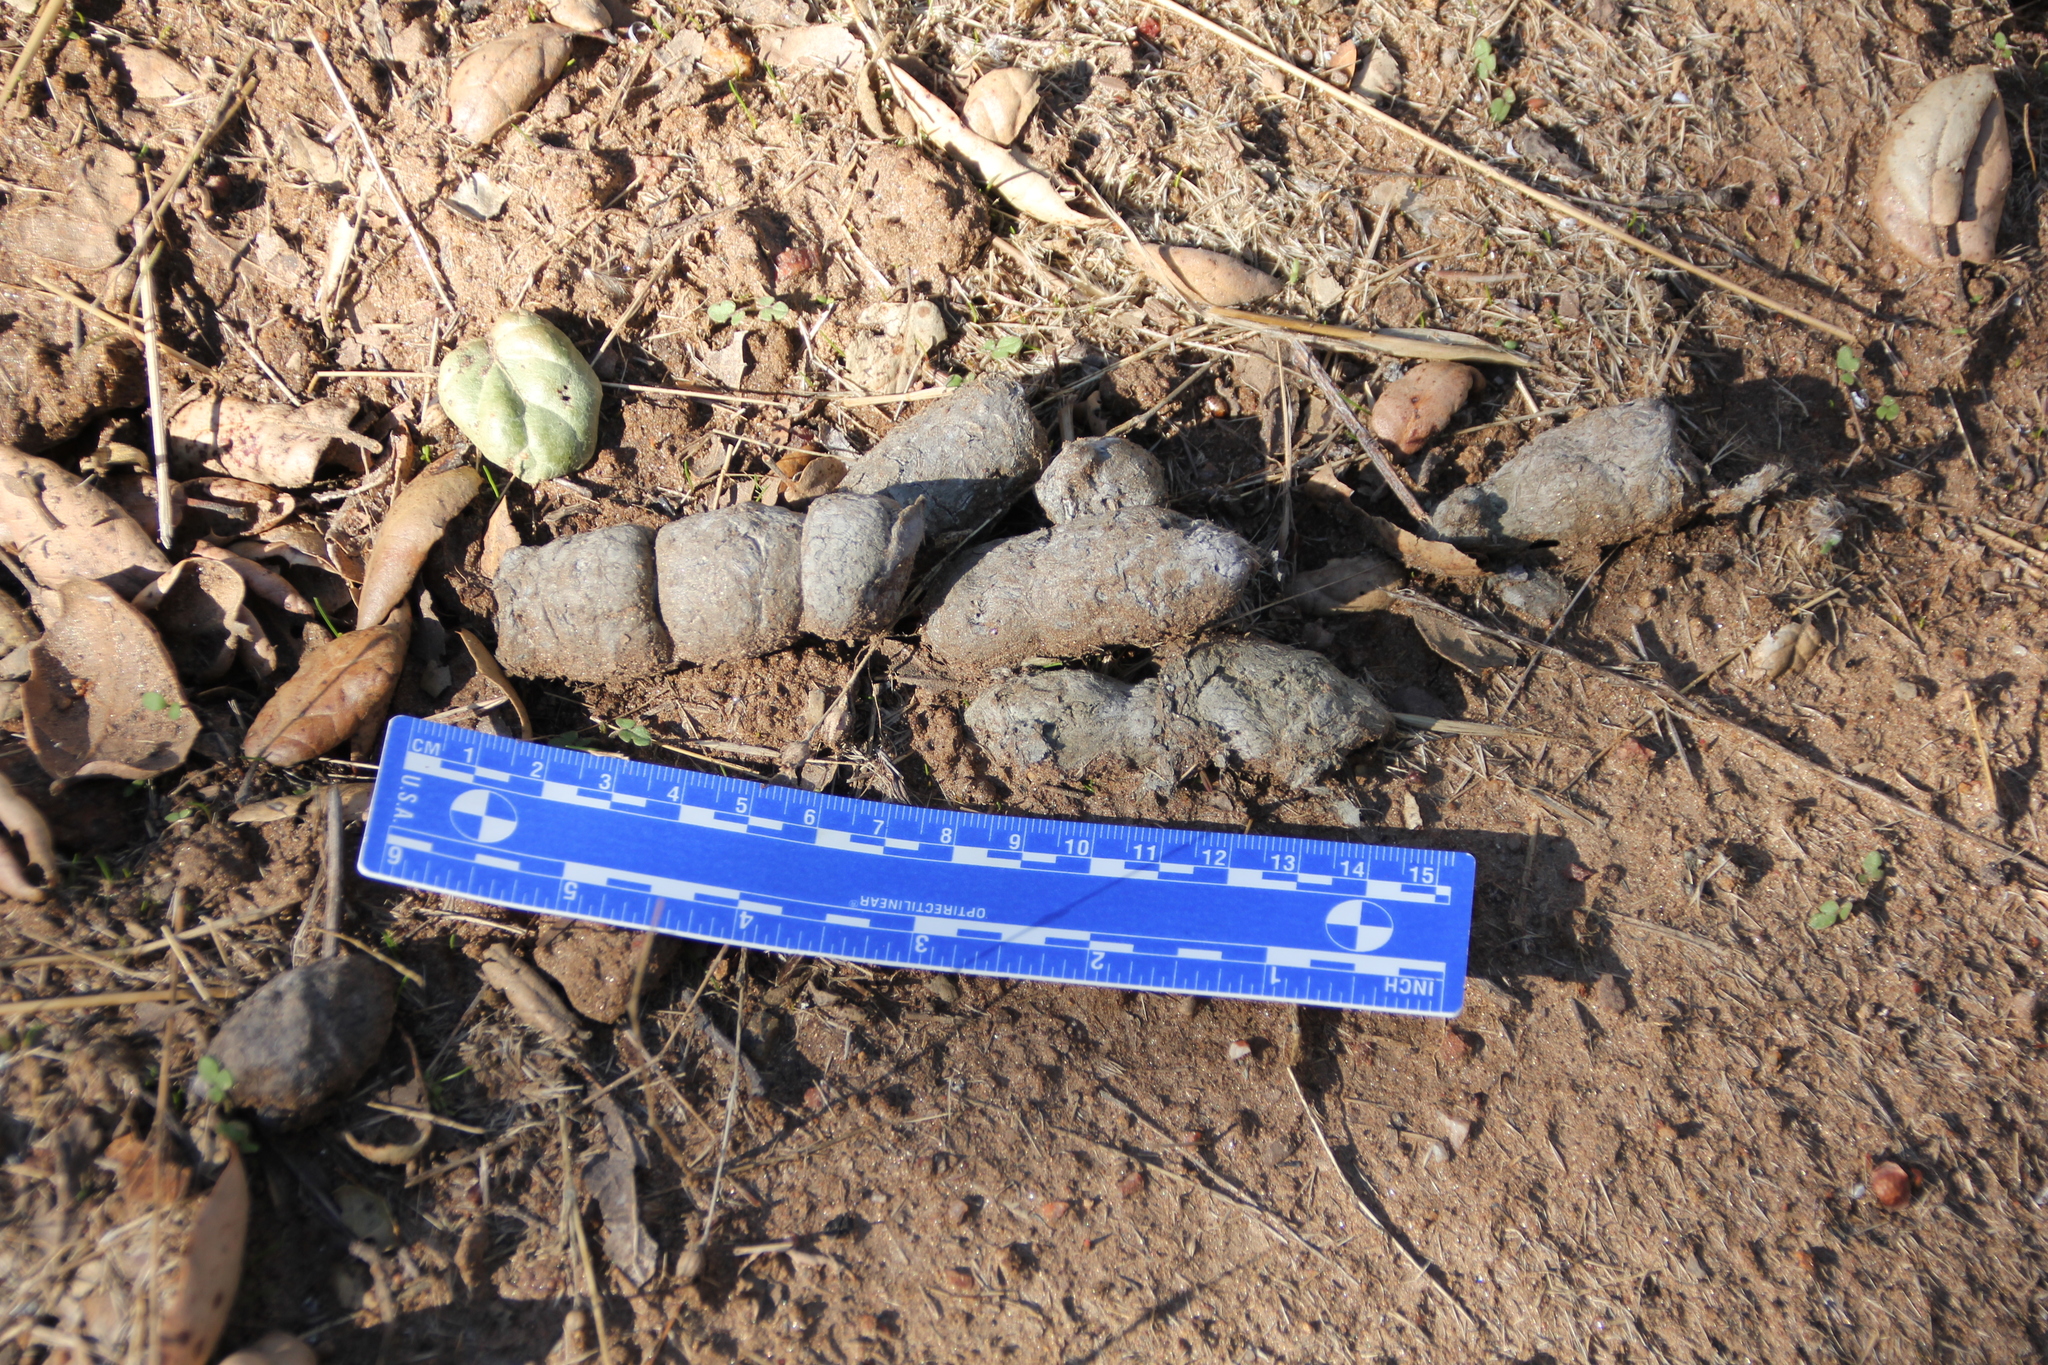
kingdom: Animalia
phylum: Chordata
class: Mammalia
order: Carnivora
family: Felidae
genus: Lynx
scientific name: Lynx rufus
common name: Bobcat
